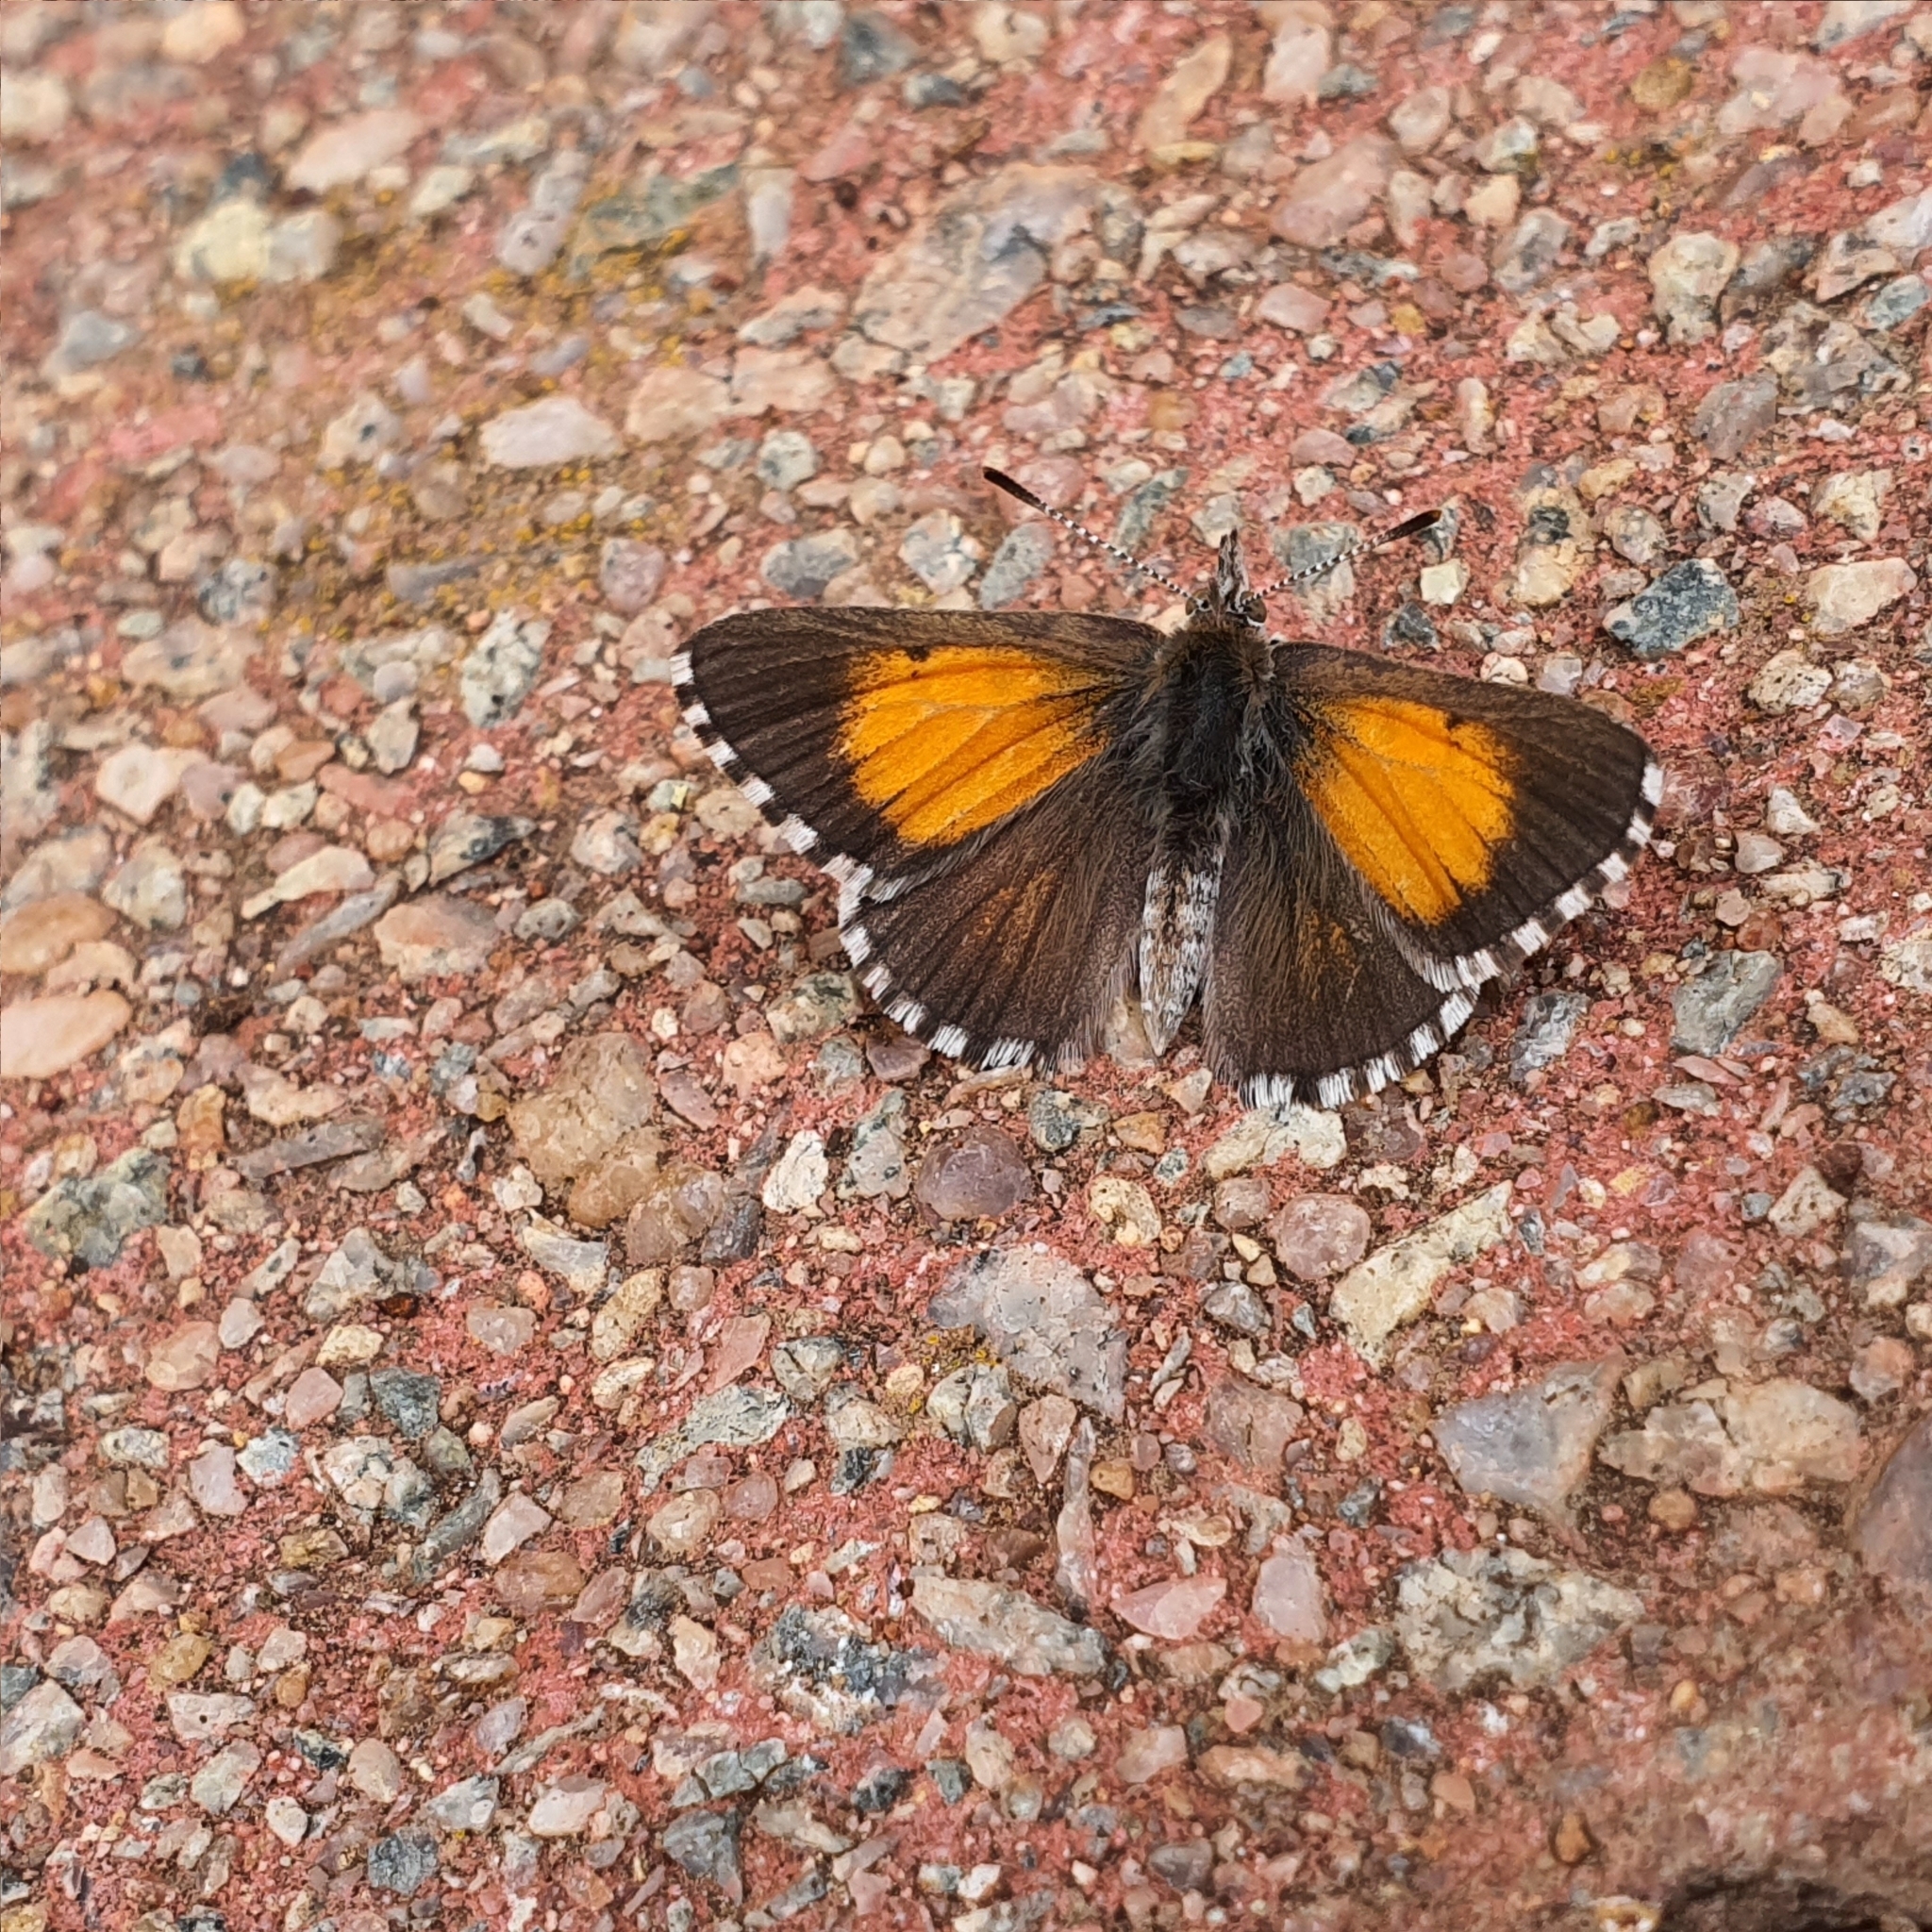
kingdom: Animalia
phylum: Arthropoda
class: Insecta
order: Lepidoptera
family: Lycaenidae
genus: Lucia
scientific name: Lucia limbaria
